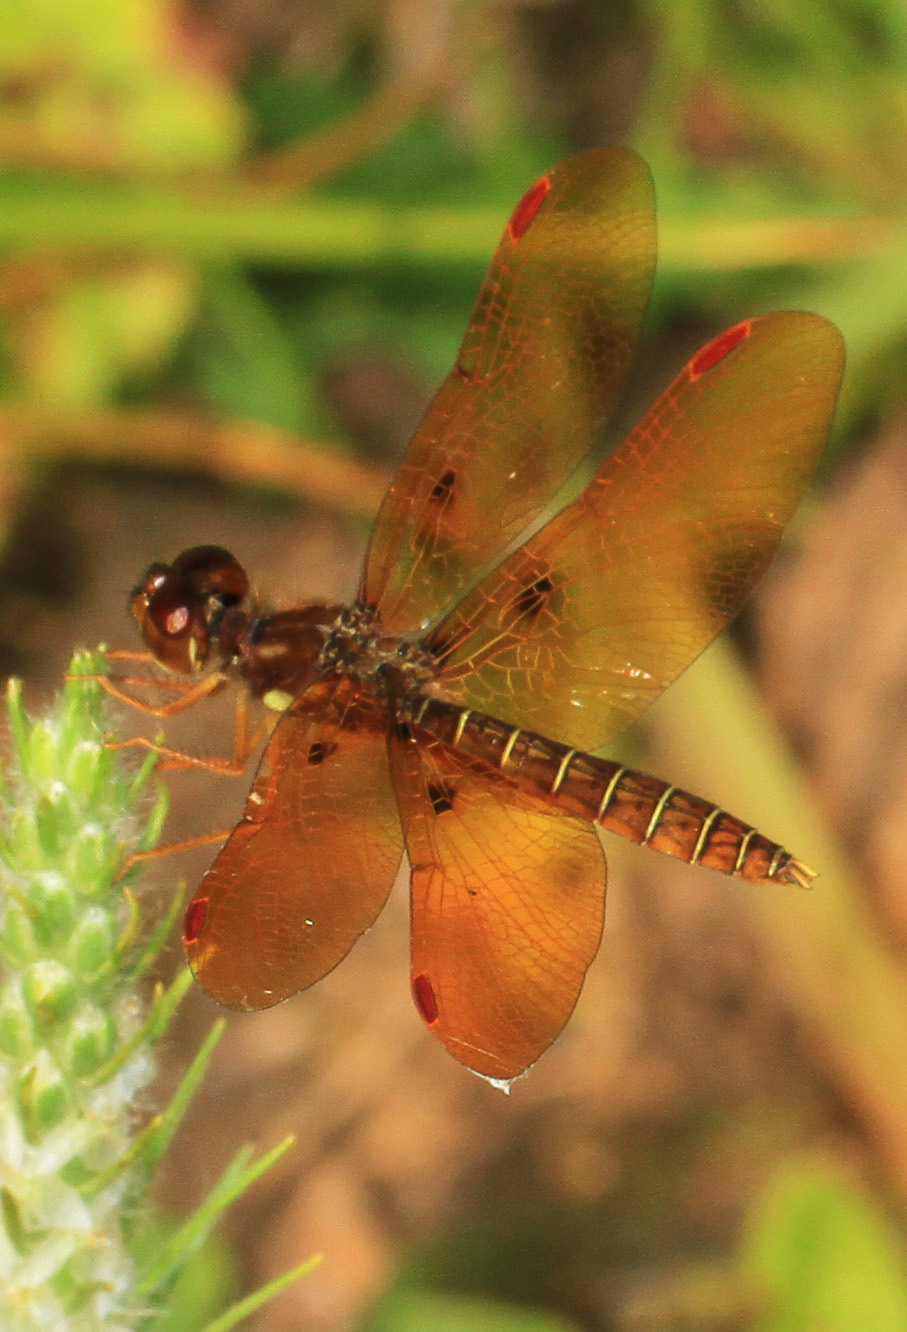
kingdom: Animalia
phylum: Arthropoda
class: Insecta
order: Odonata
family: Libellulidae
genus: Perithemis
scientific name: Perithemis tenera
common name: Eastern amberwing
